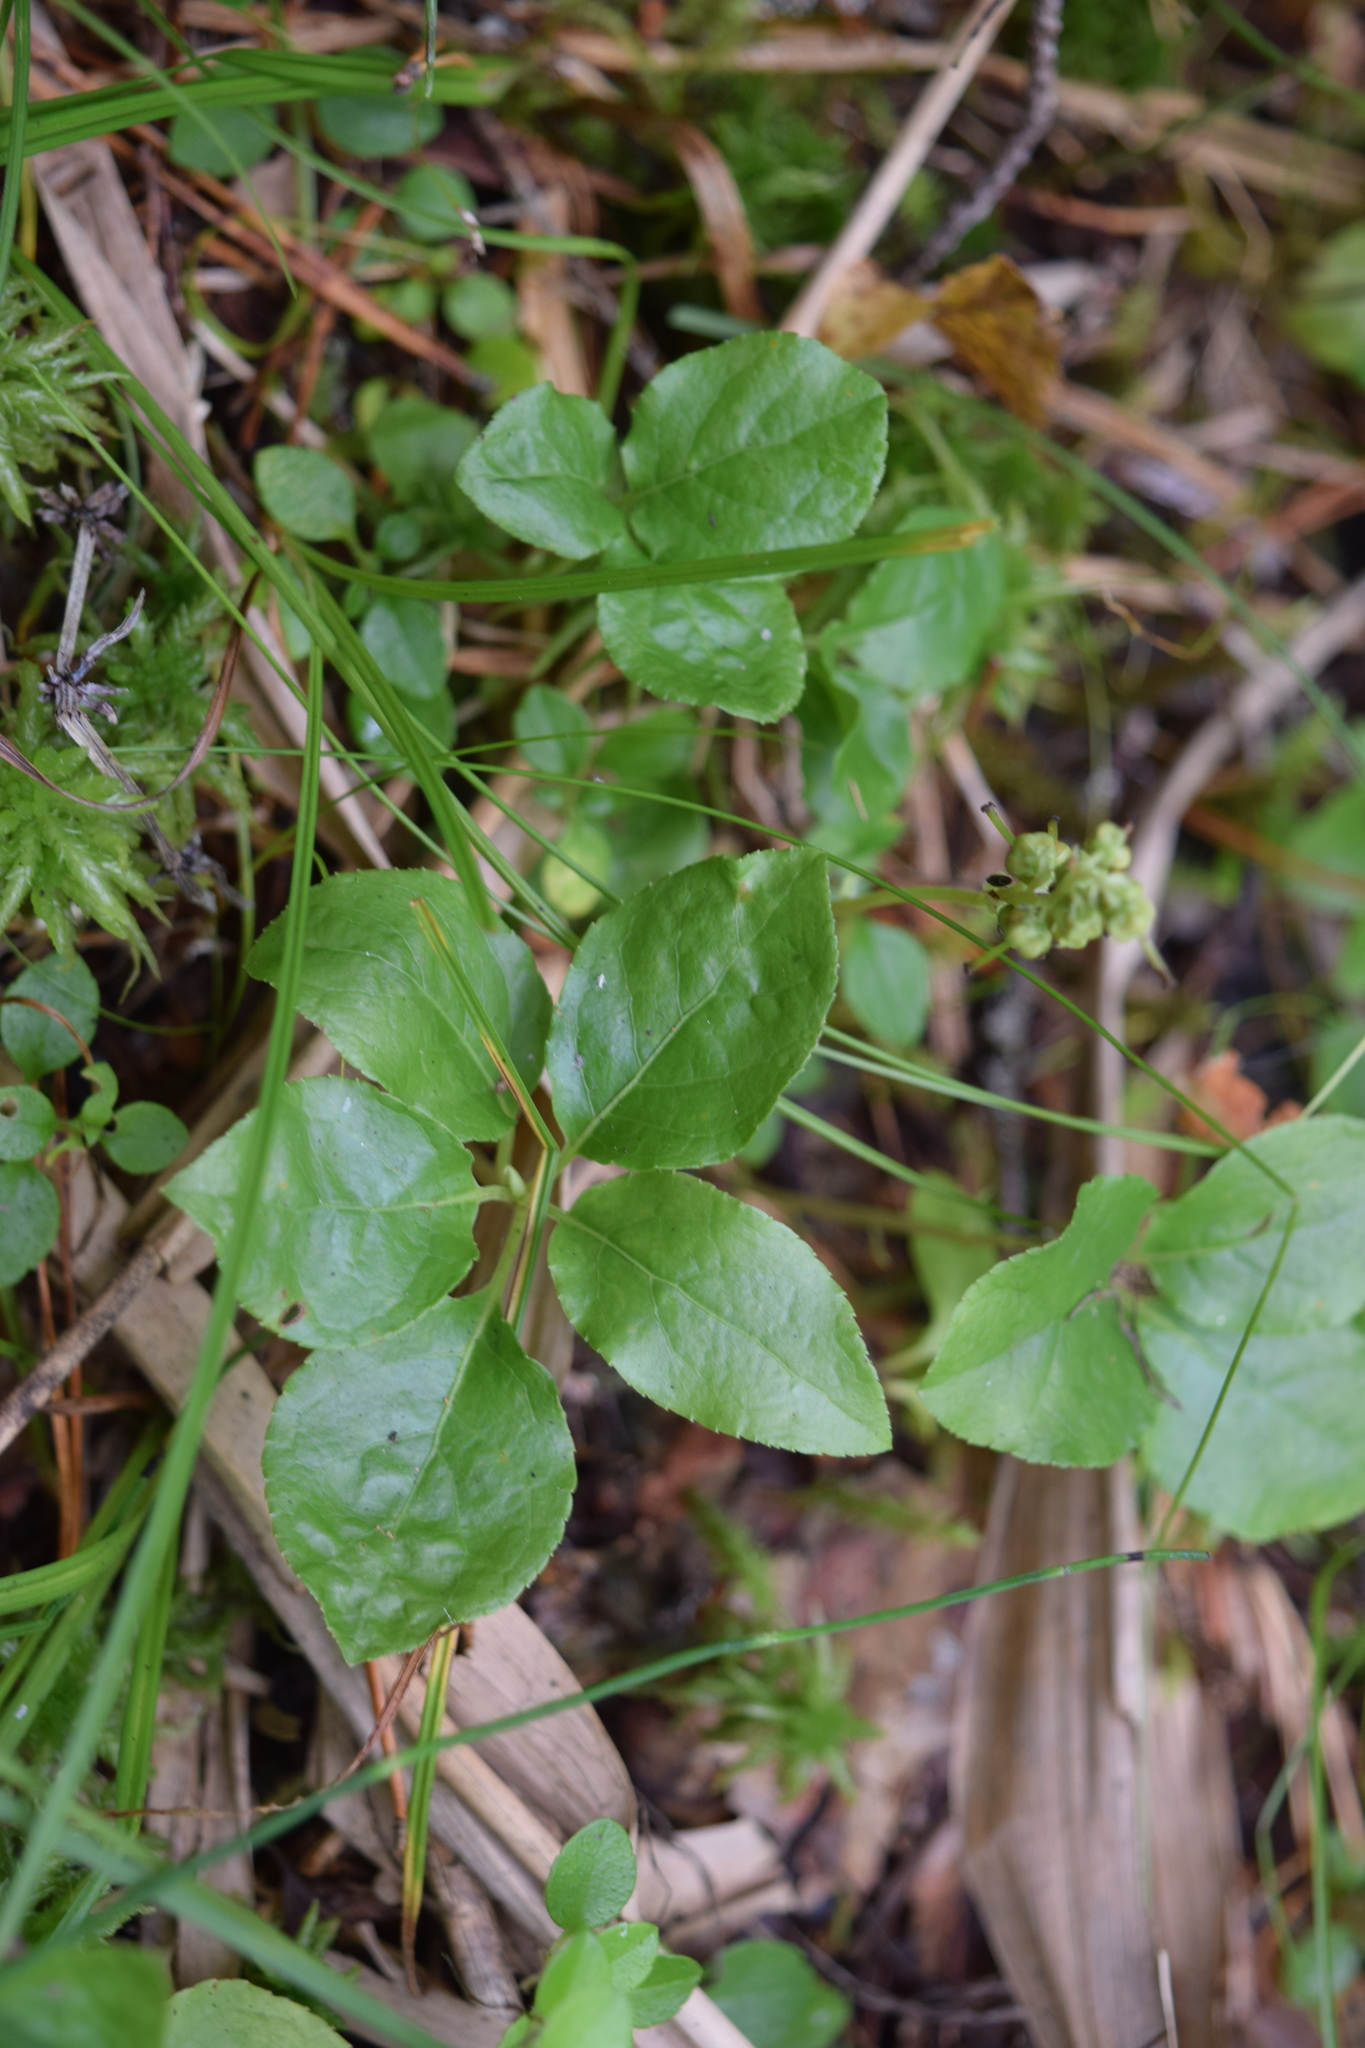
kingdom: Plantae
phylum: Tracheophyta
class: Magnoliopsida
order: Ericales
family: Ericaceae
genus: Orthilia
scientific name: Orthilia secunda
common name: One-sided orthilia
